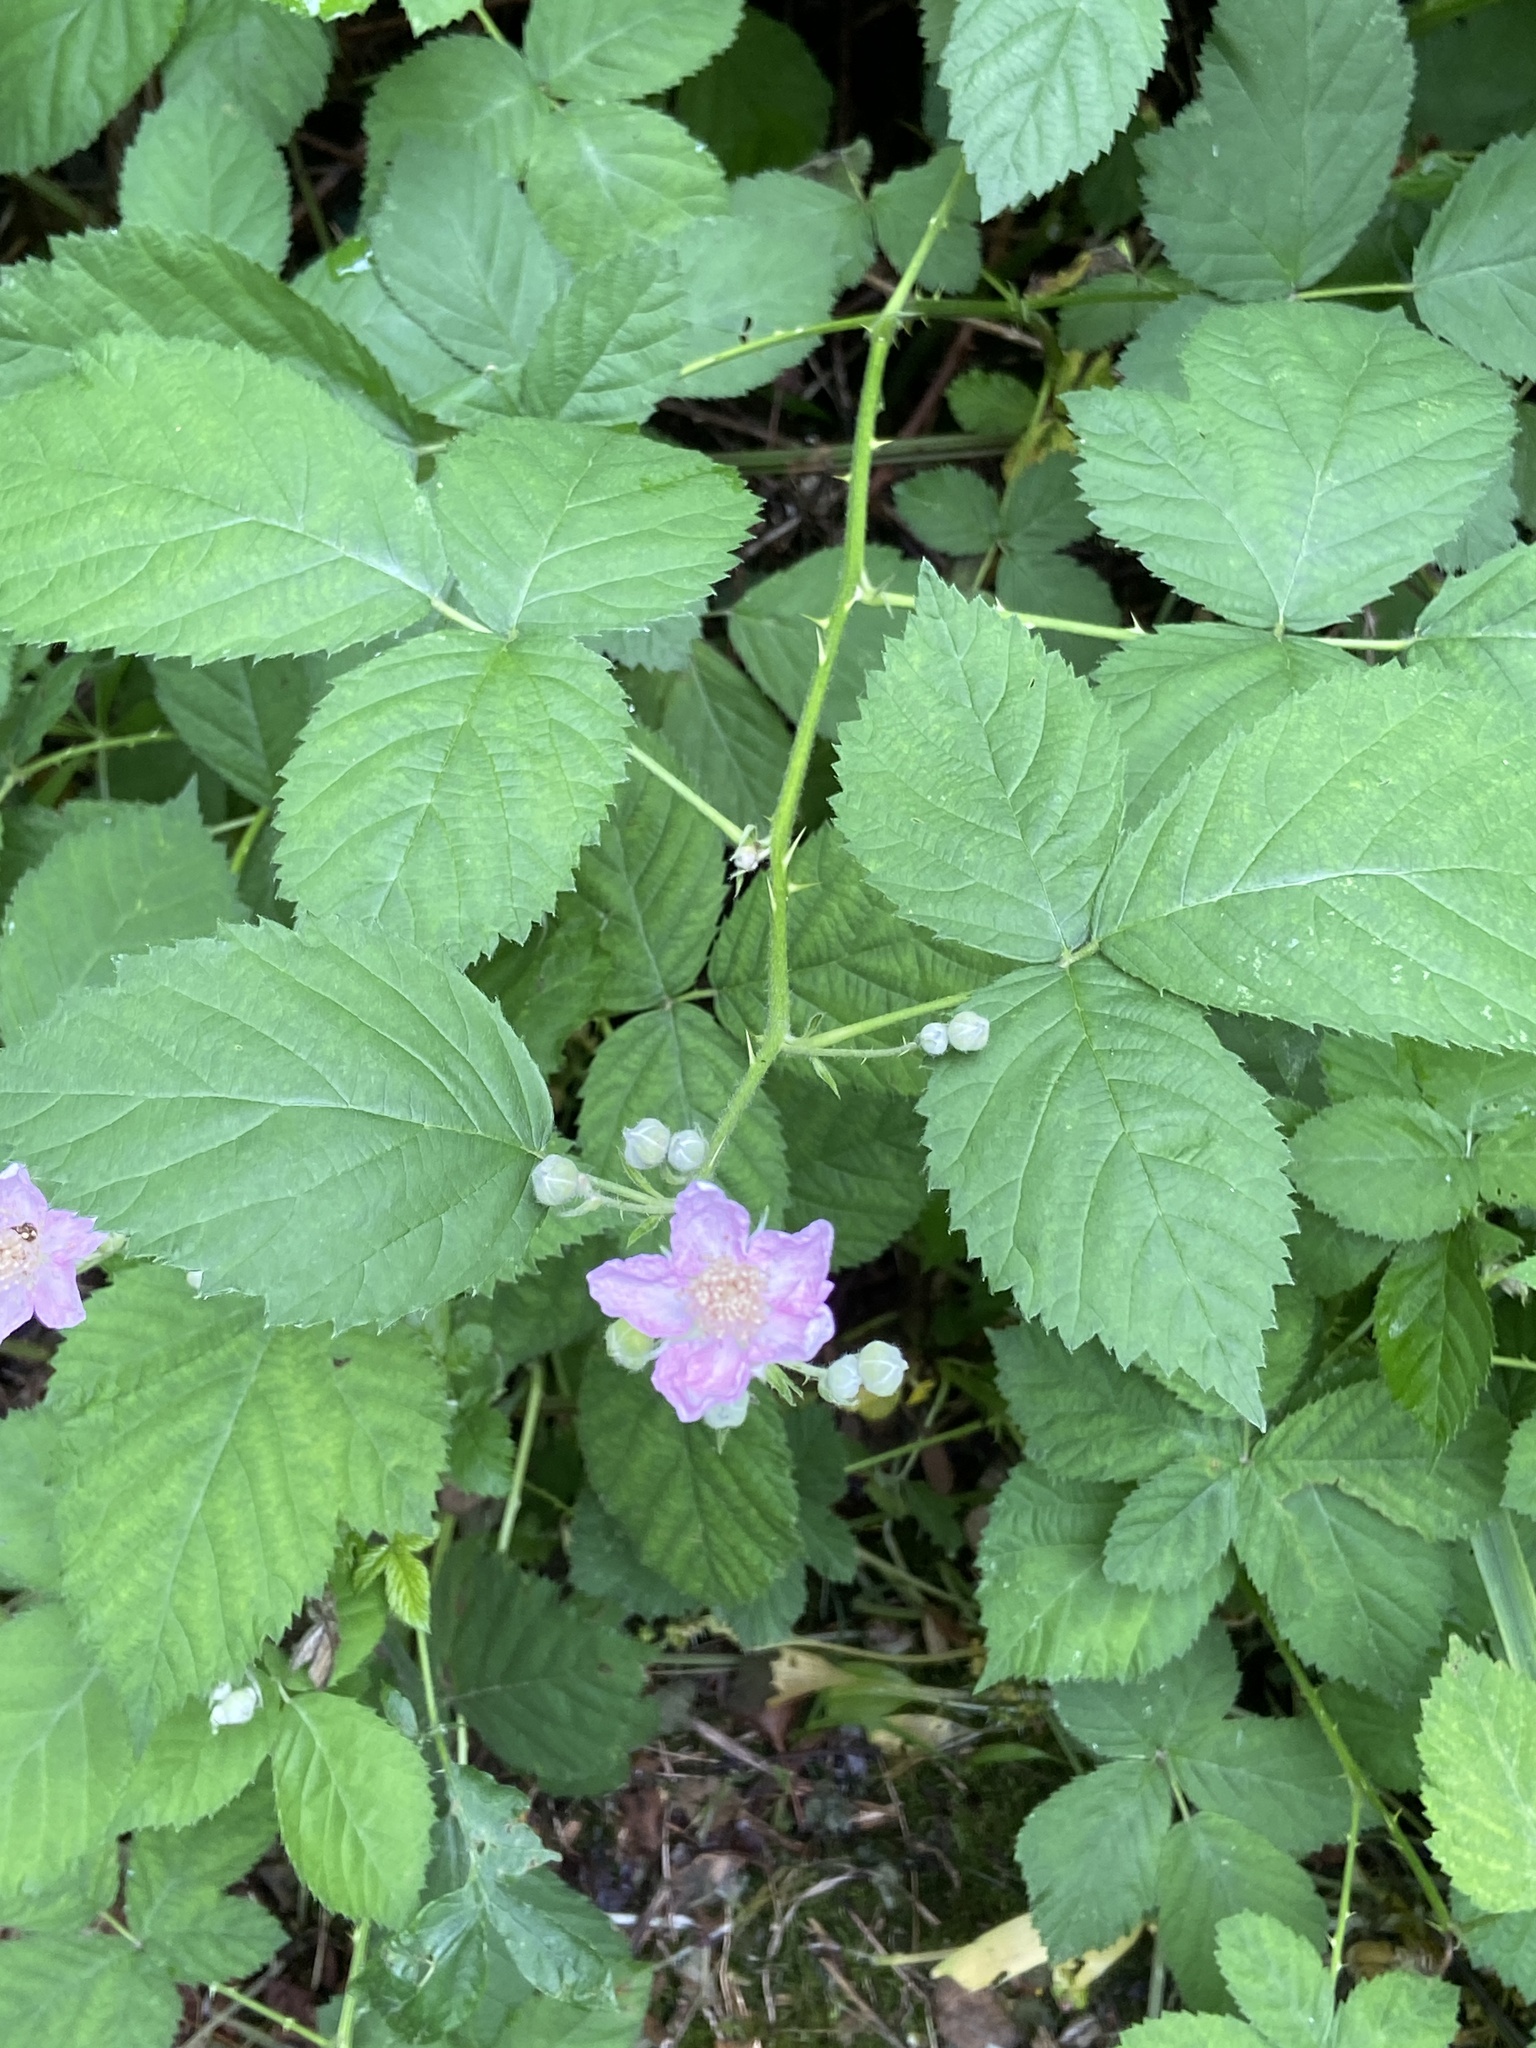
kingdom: Plantae
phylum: Tracheophyta
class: Magnoliopsida
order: Rosales
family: Rosaceae
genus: Rubus
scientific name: Rubus armeniacus
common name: Himalayan blackberry
